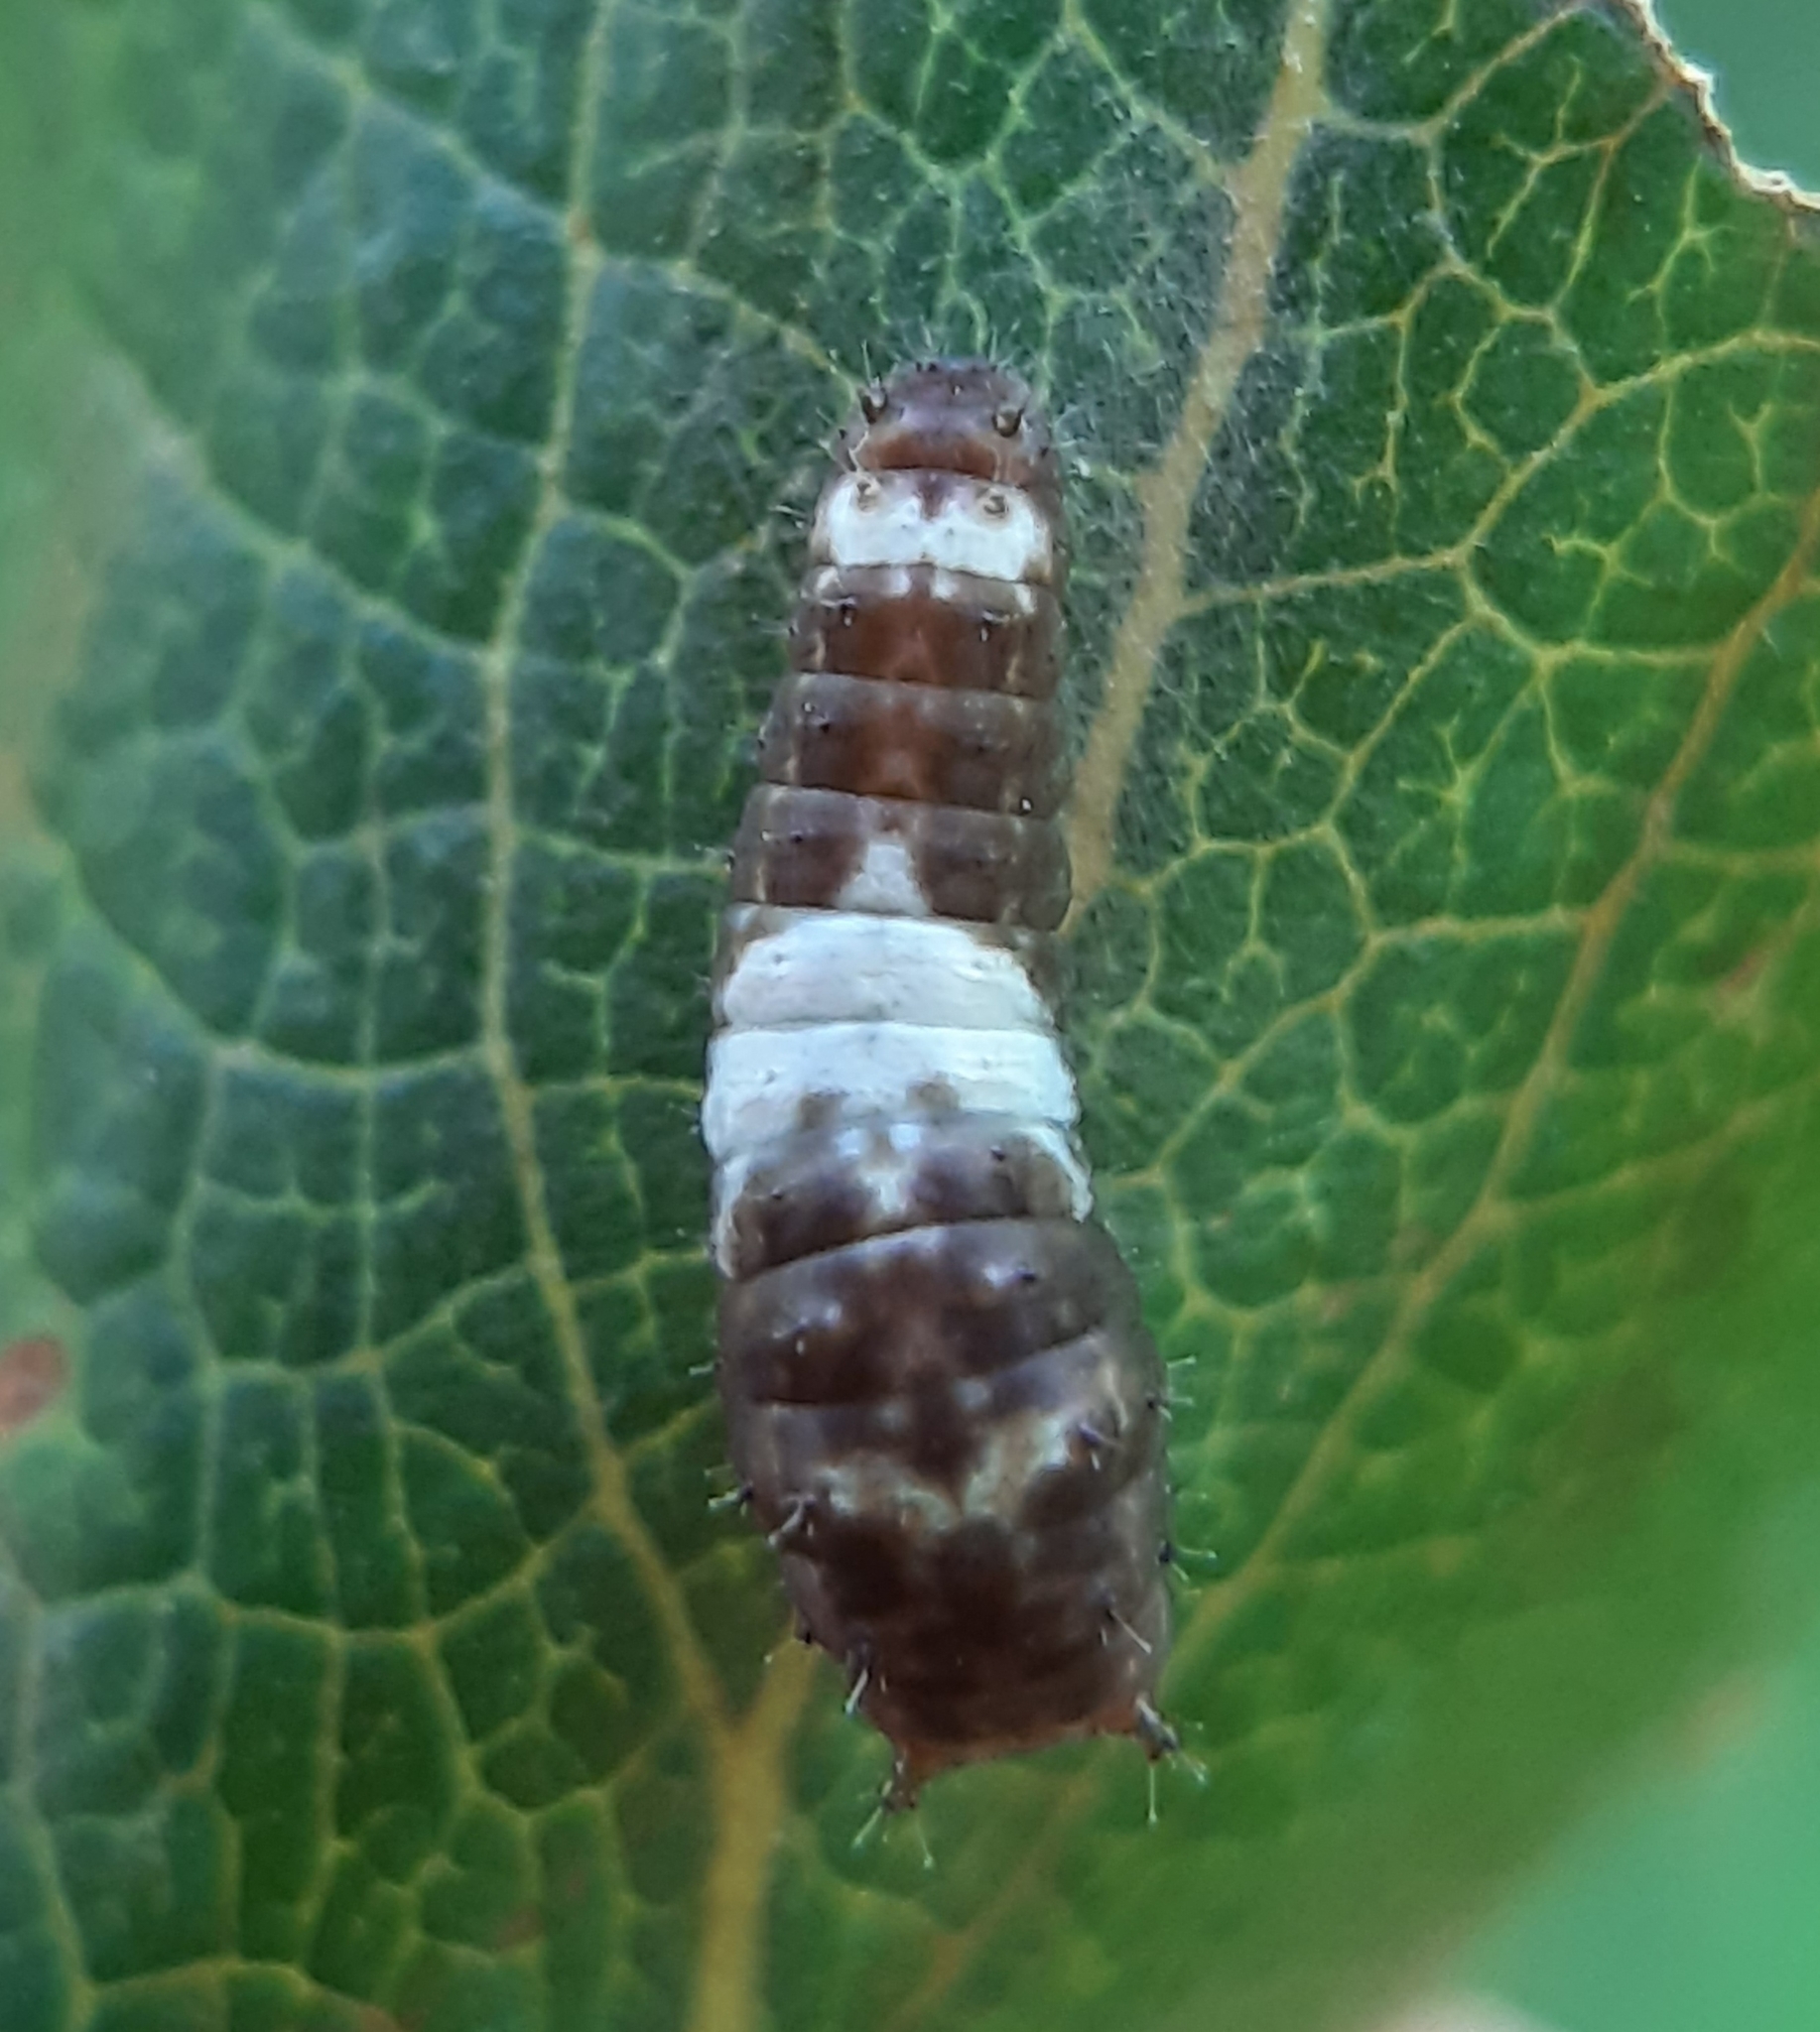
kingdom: Animalia
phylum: Arthropoda
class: Insecta
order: Lepidoptera
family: Papilionidae
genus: Papilio
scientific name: Papilio canadensis
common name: Canadian tiger swallowtail
